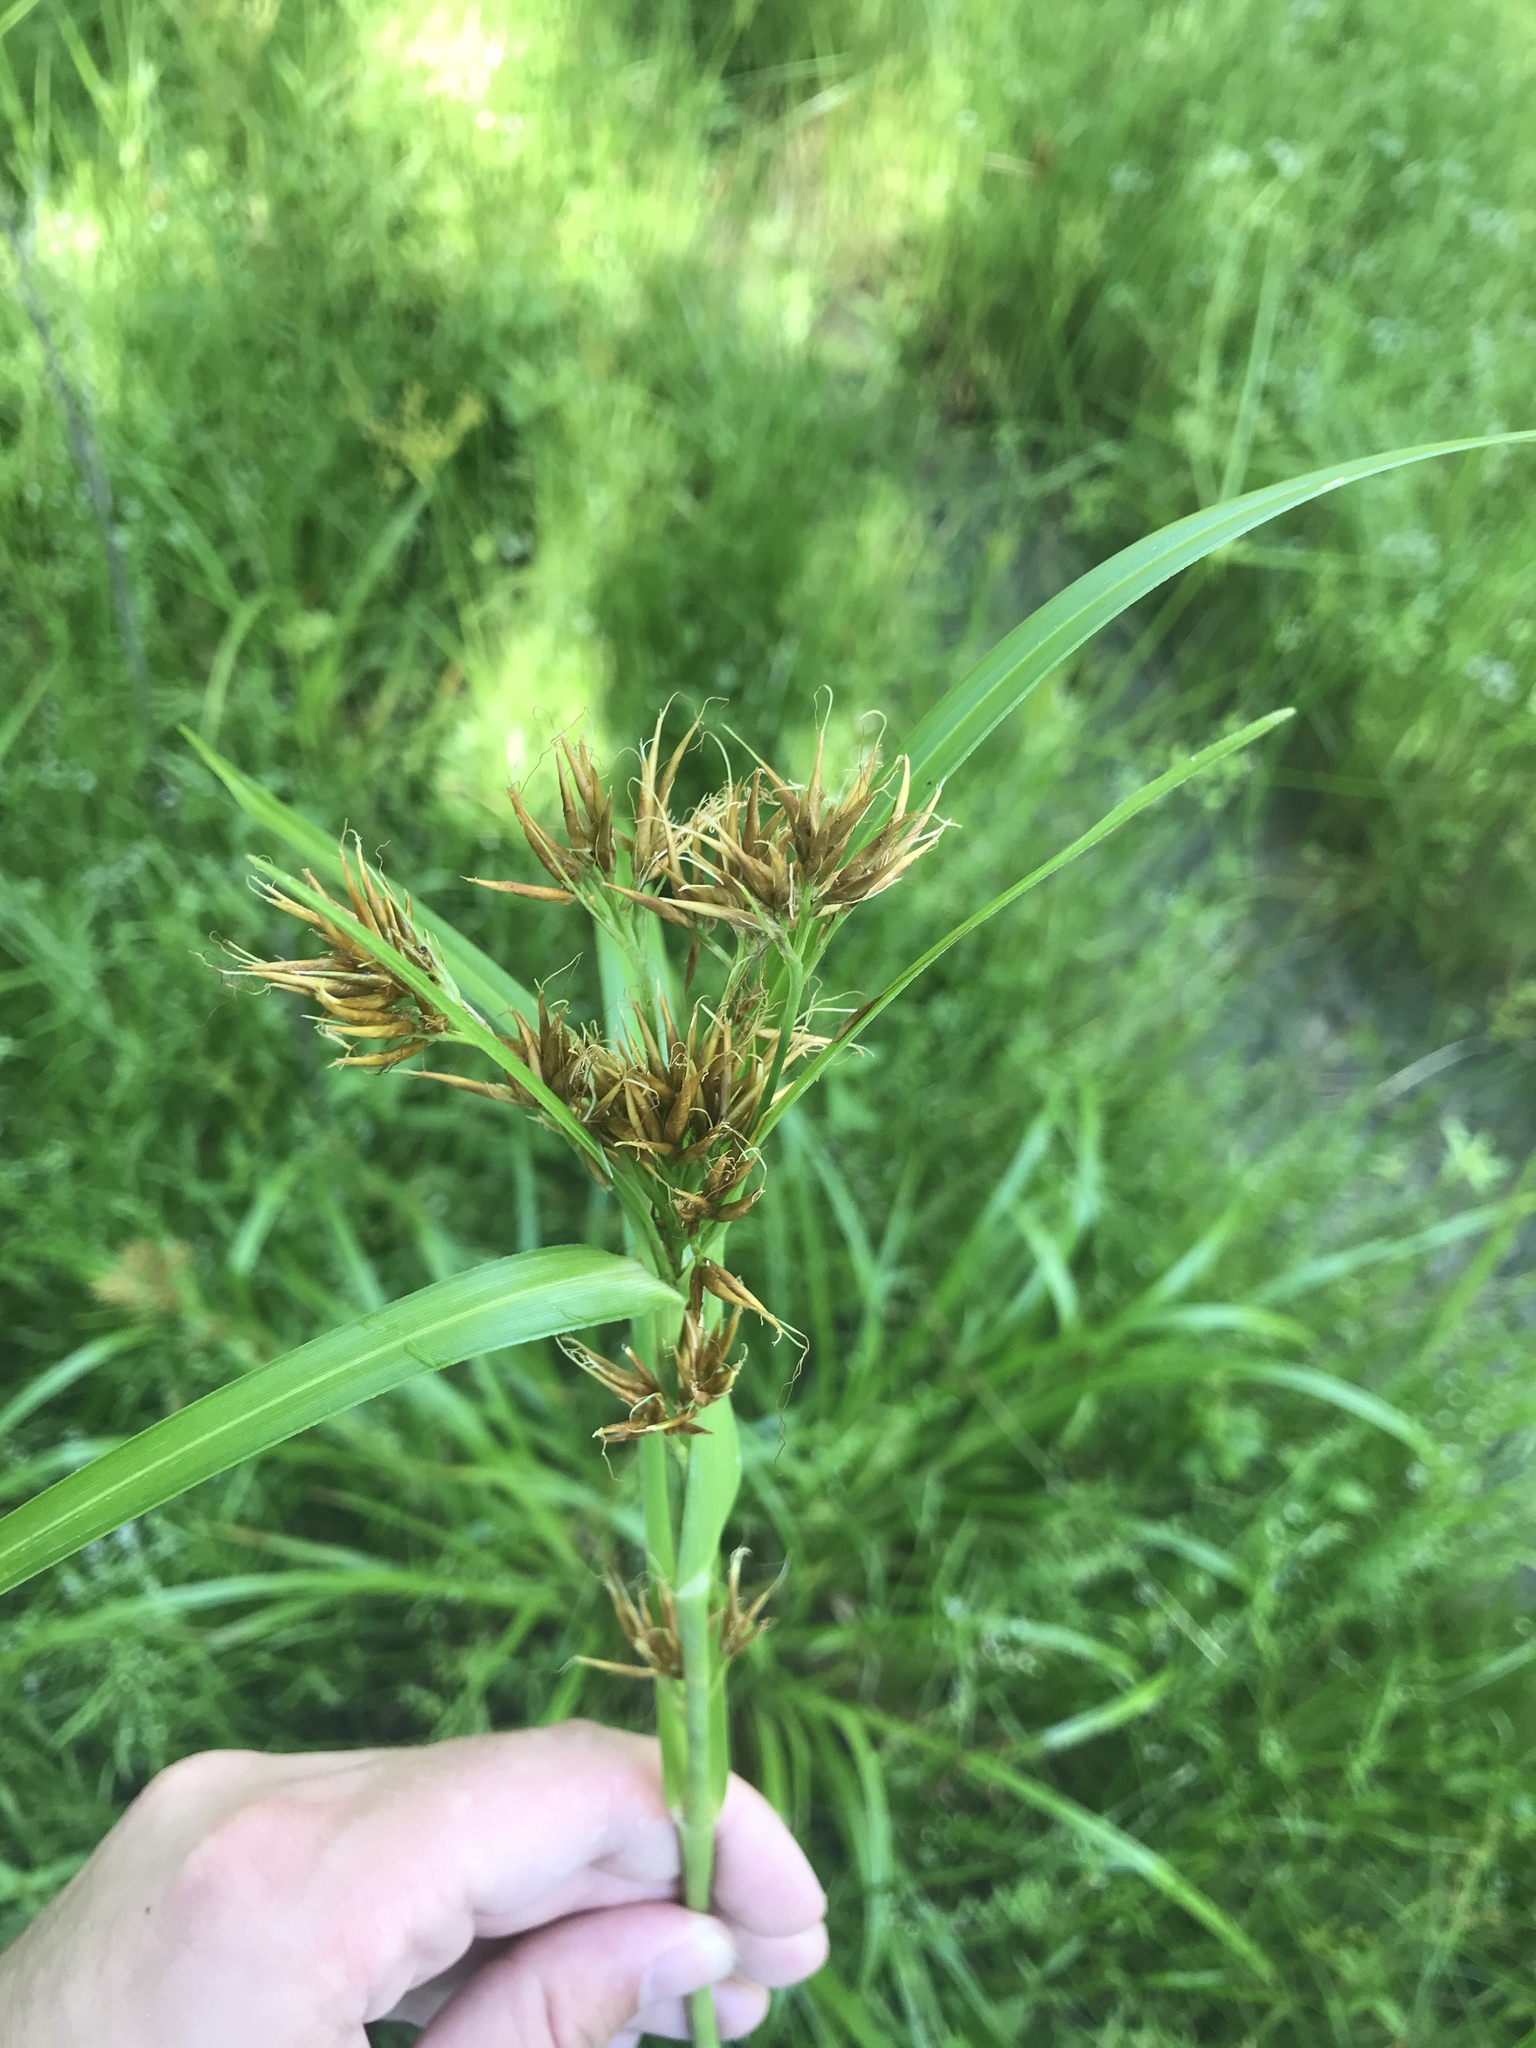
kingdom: Plantae
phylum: Tracheophyta
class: Liliopsida
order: Poales
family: Cyperaceae
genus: Rhynchospora
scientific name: Rhynchospora corniculata
